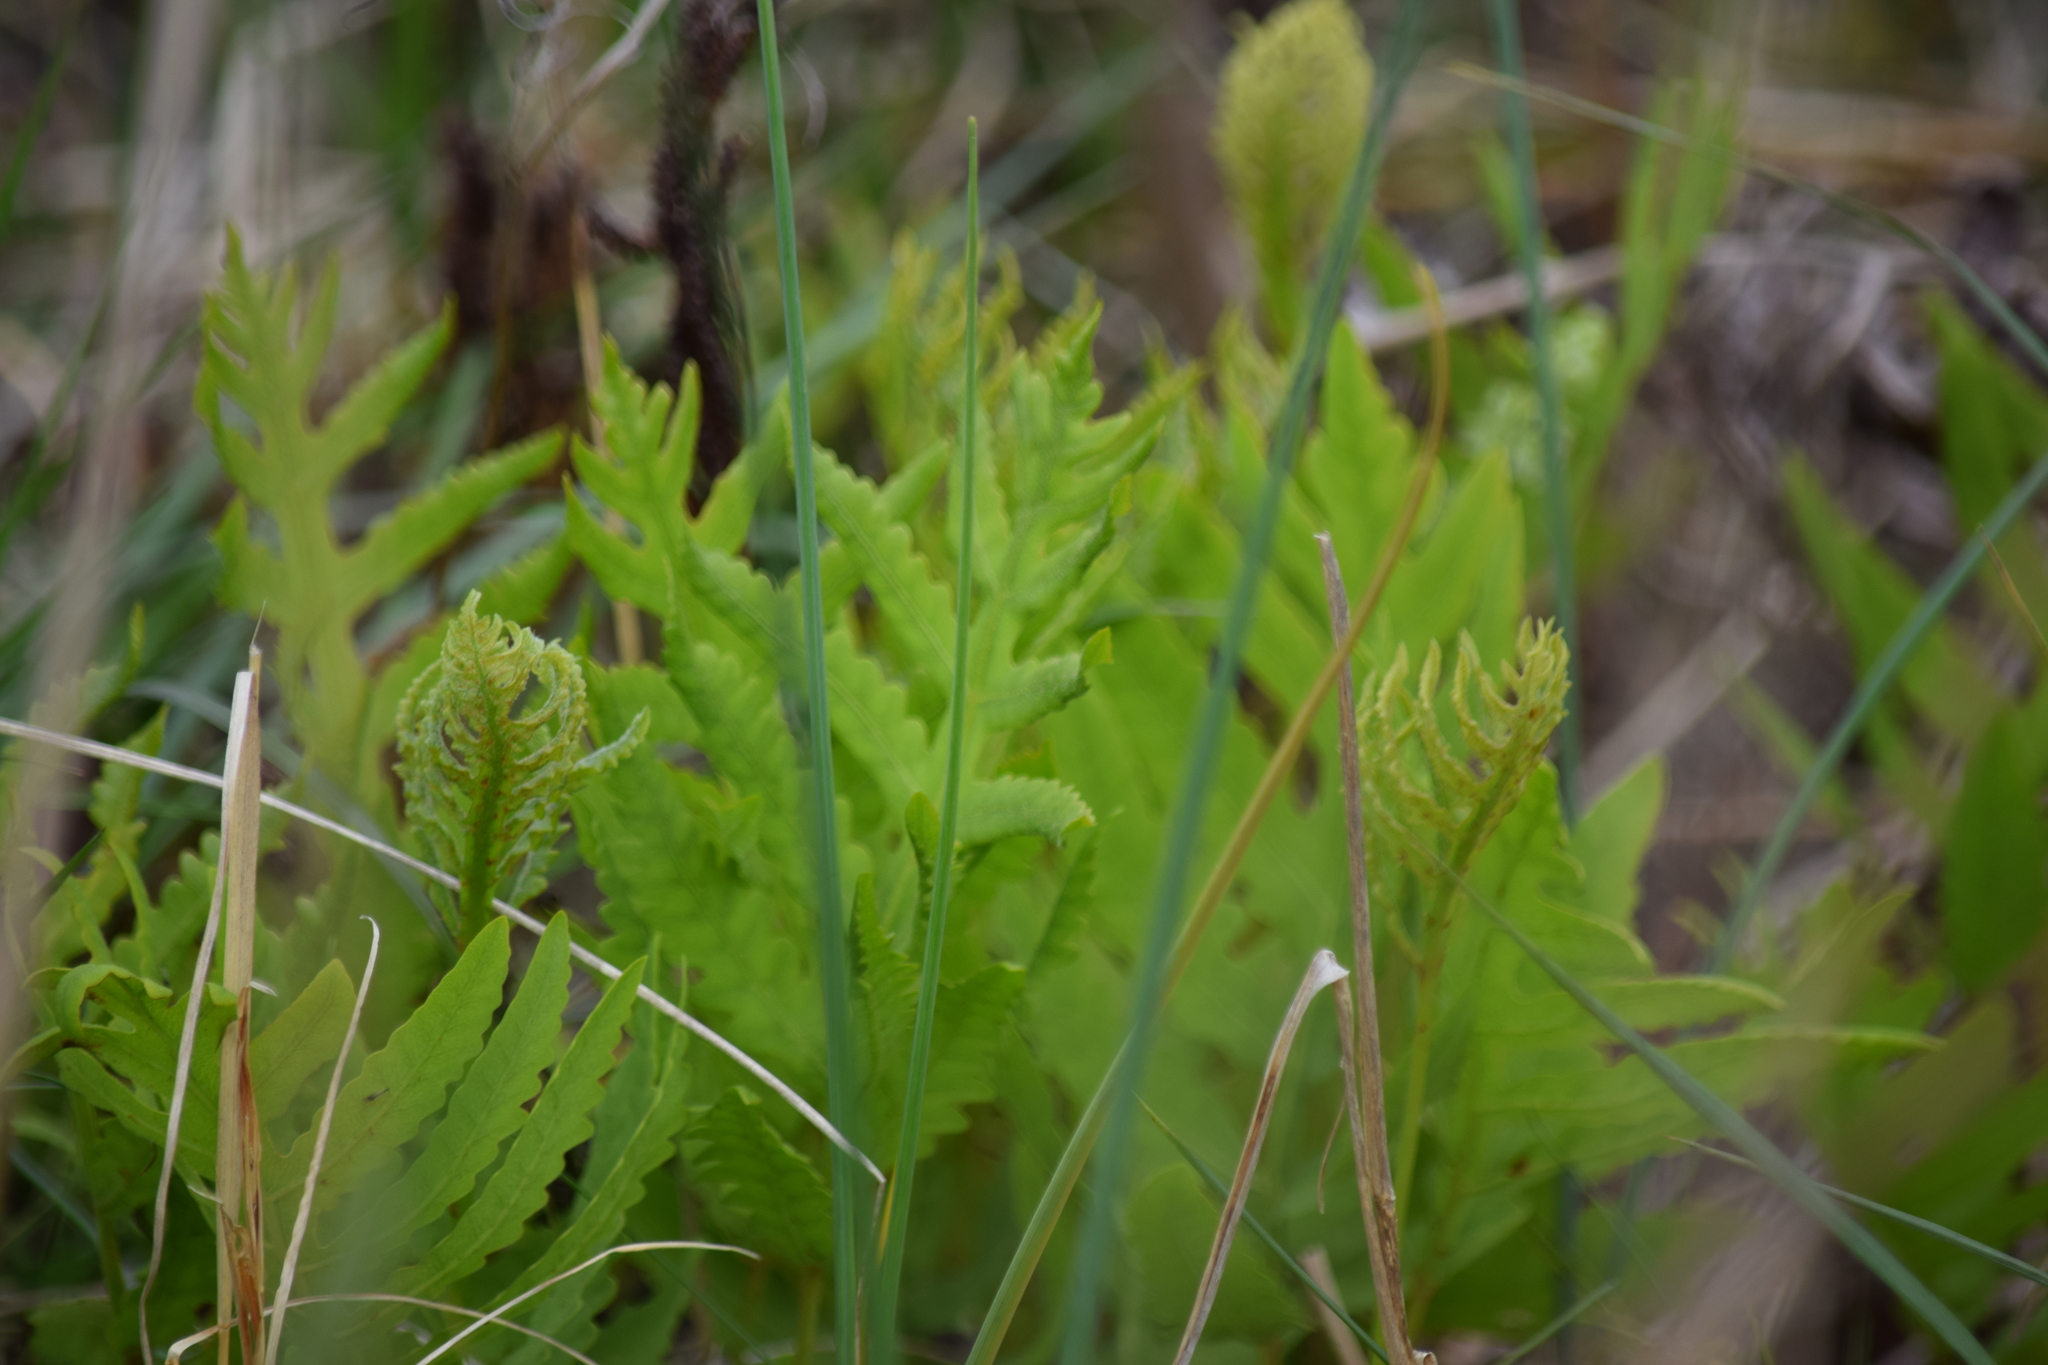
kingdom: Plantae
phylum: Tracheophyta
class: Polypodiopsida
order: Polypodiales
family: Onocleaceae
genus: Onoclea
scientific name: Onoclea sensibilis
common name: Sensitive fern
